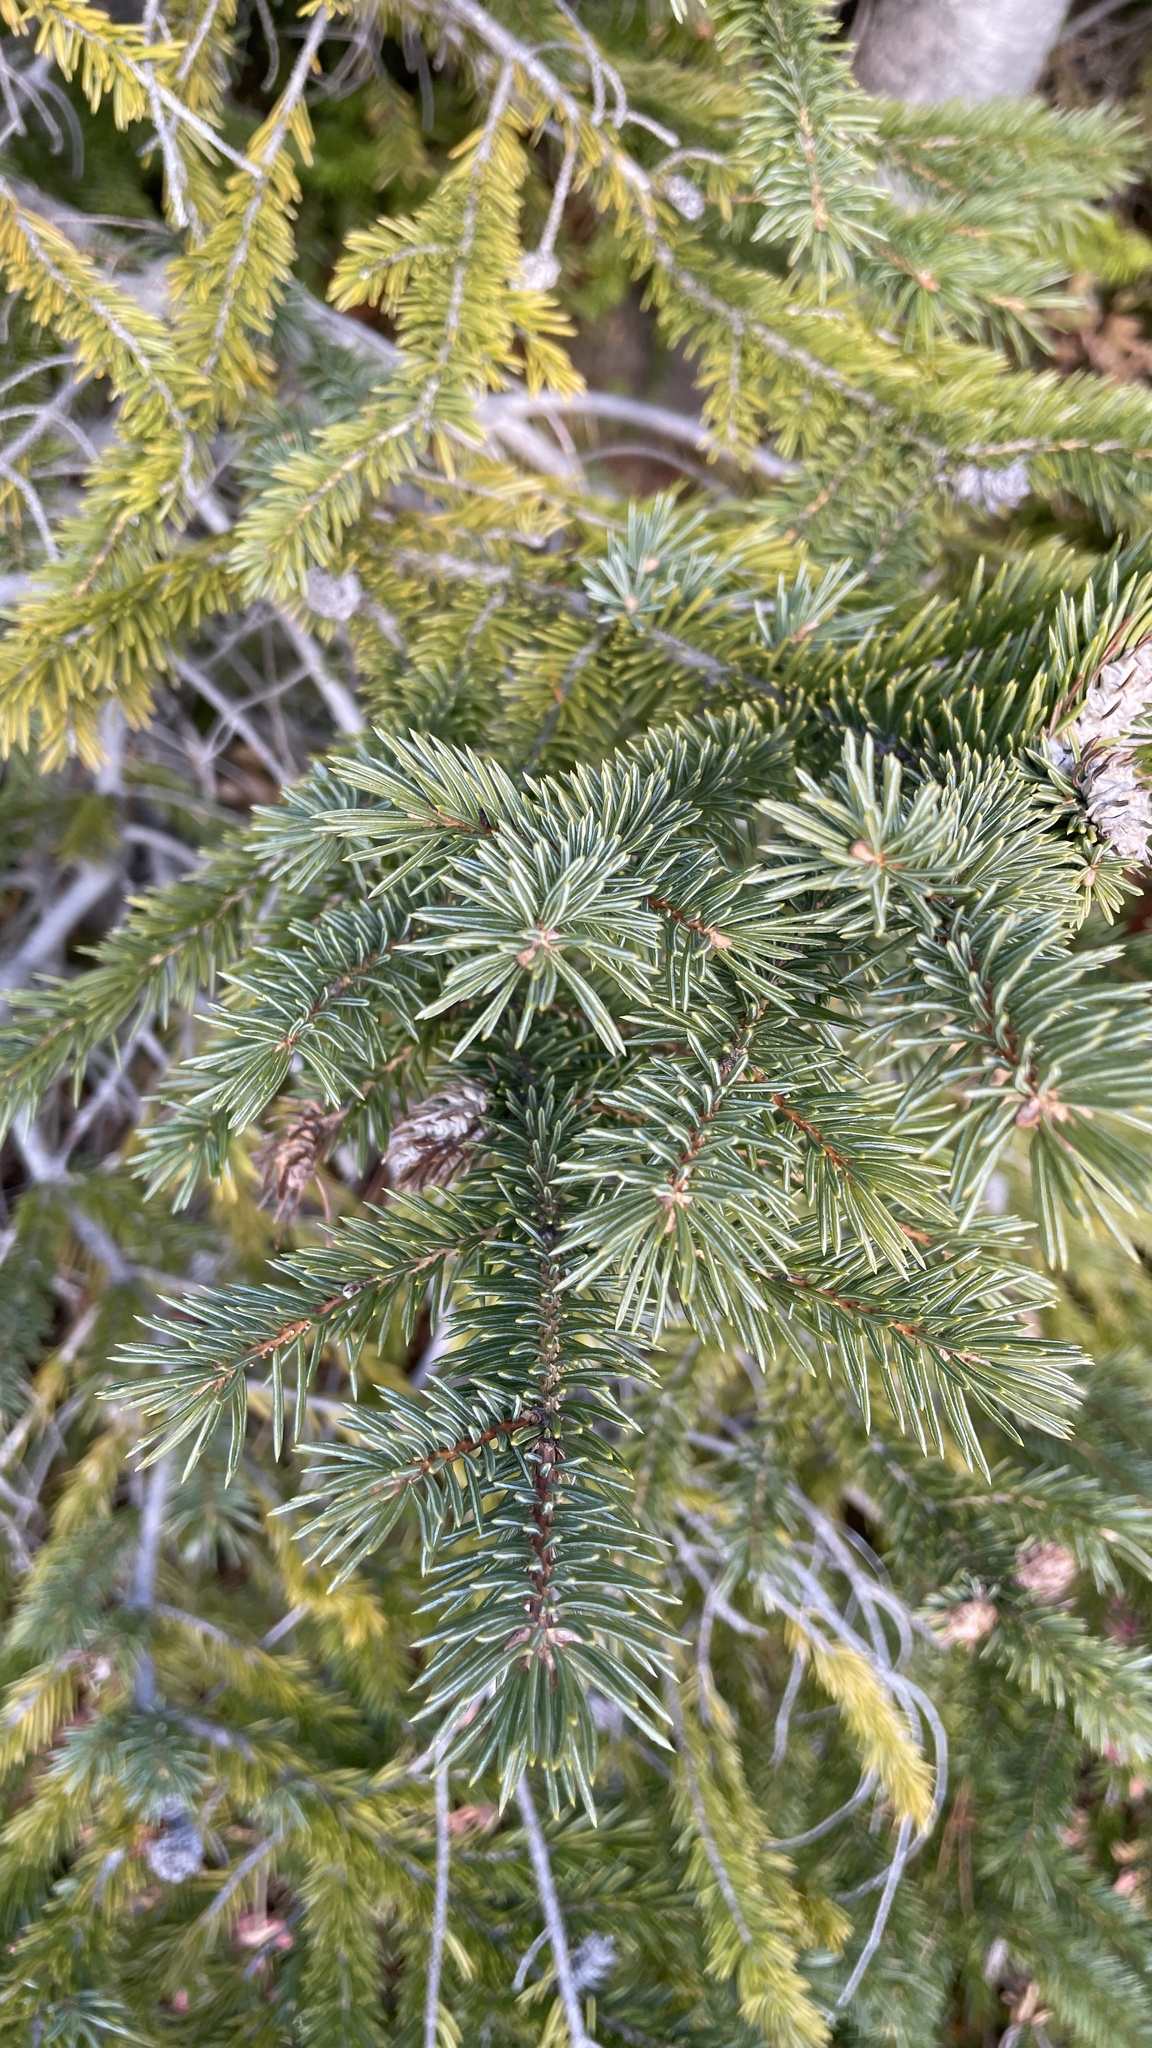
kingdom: Plantae
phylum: Tracheophyta
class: Pinopsida
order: Pinales
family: Pinaceae
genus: Picea
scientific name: Picea engelmannii
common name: Engelmann spruce
